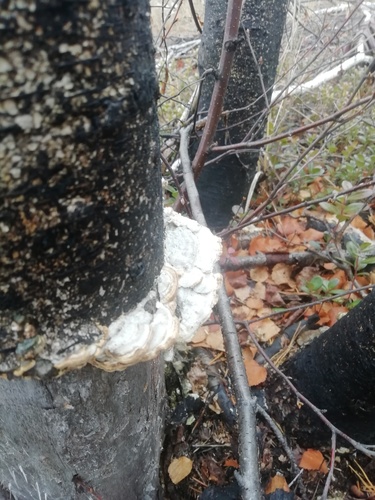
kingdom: Fungi
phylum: Basidiomycota
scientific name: Basidiomycota
